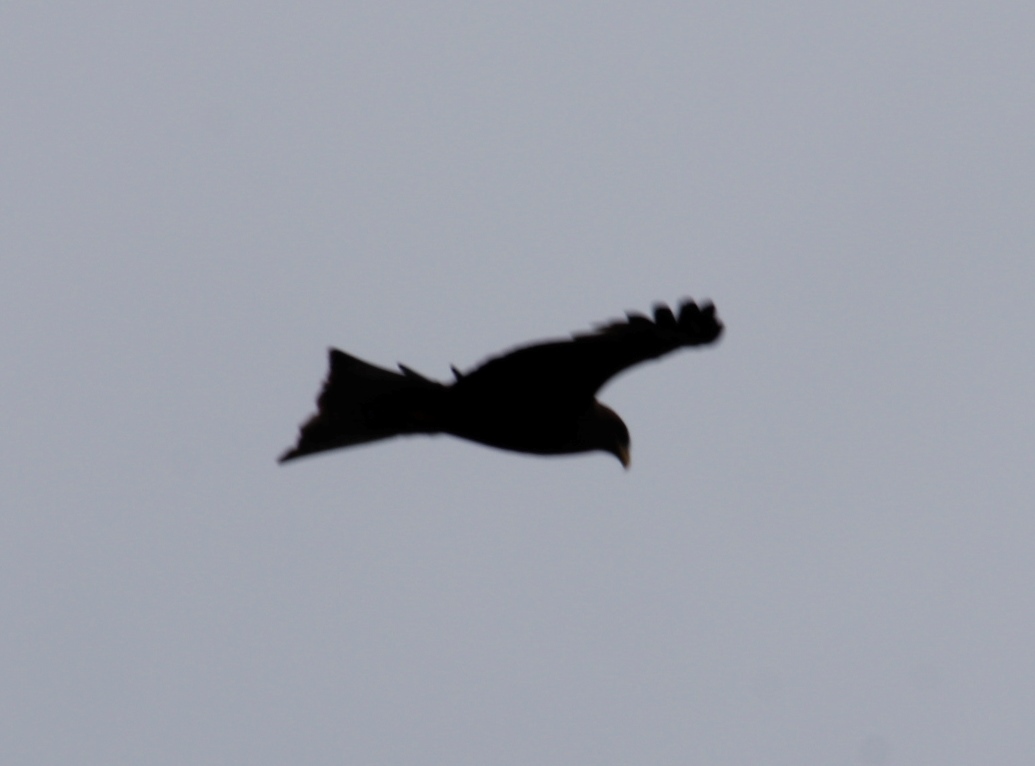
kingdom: Animalia
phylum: Chordata
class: Aves
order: Accipitriformes
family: Accipitridae
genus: Milvus
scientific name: Milvus migrans
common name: Black kite
